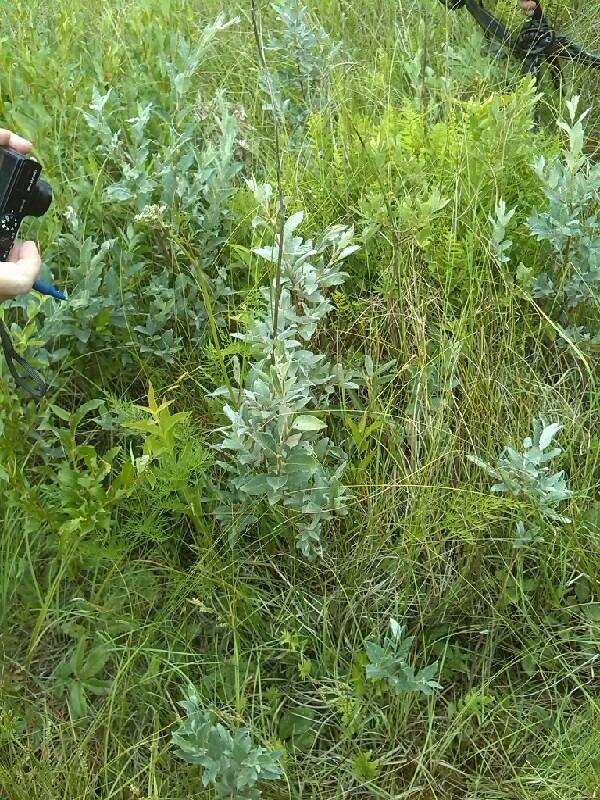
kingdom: Plantae
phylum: Tracheophyta
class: Magnoliopsida
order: Malpighiales
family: Salicaceae
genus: Salix
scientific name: Salix lapponum
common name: Downy willow
